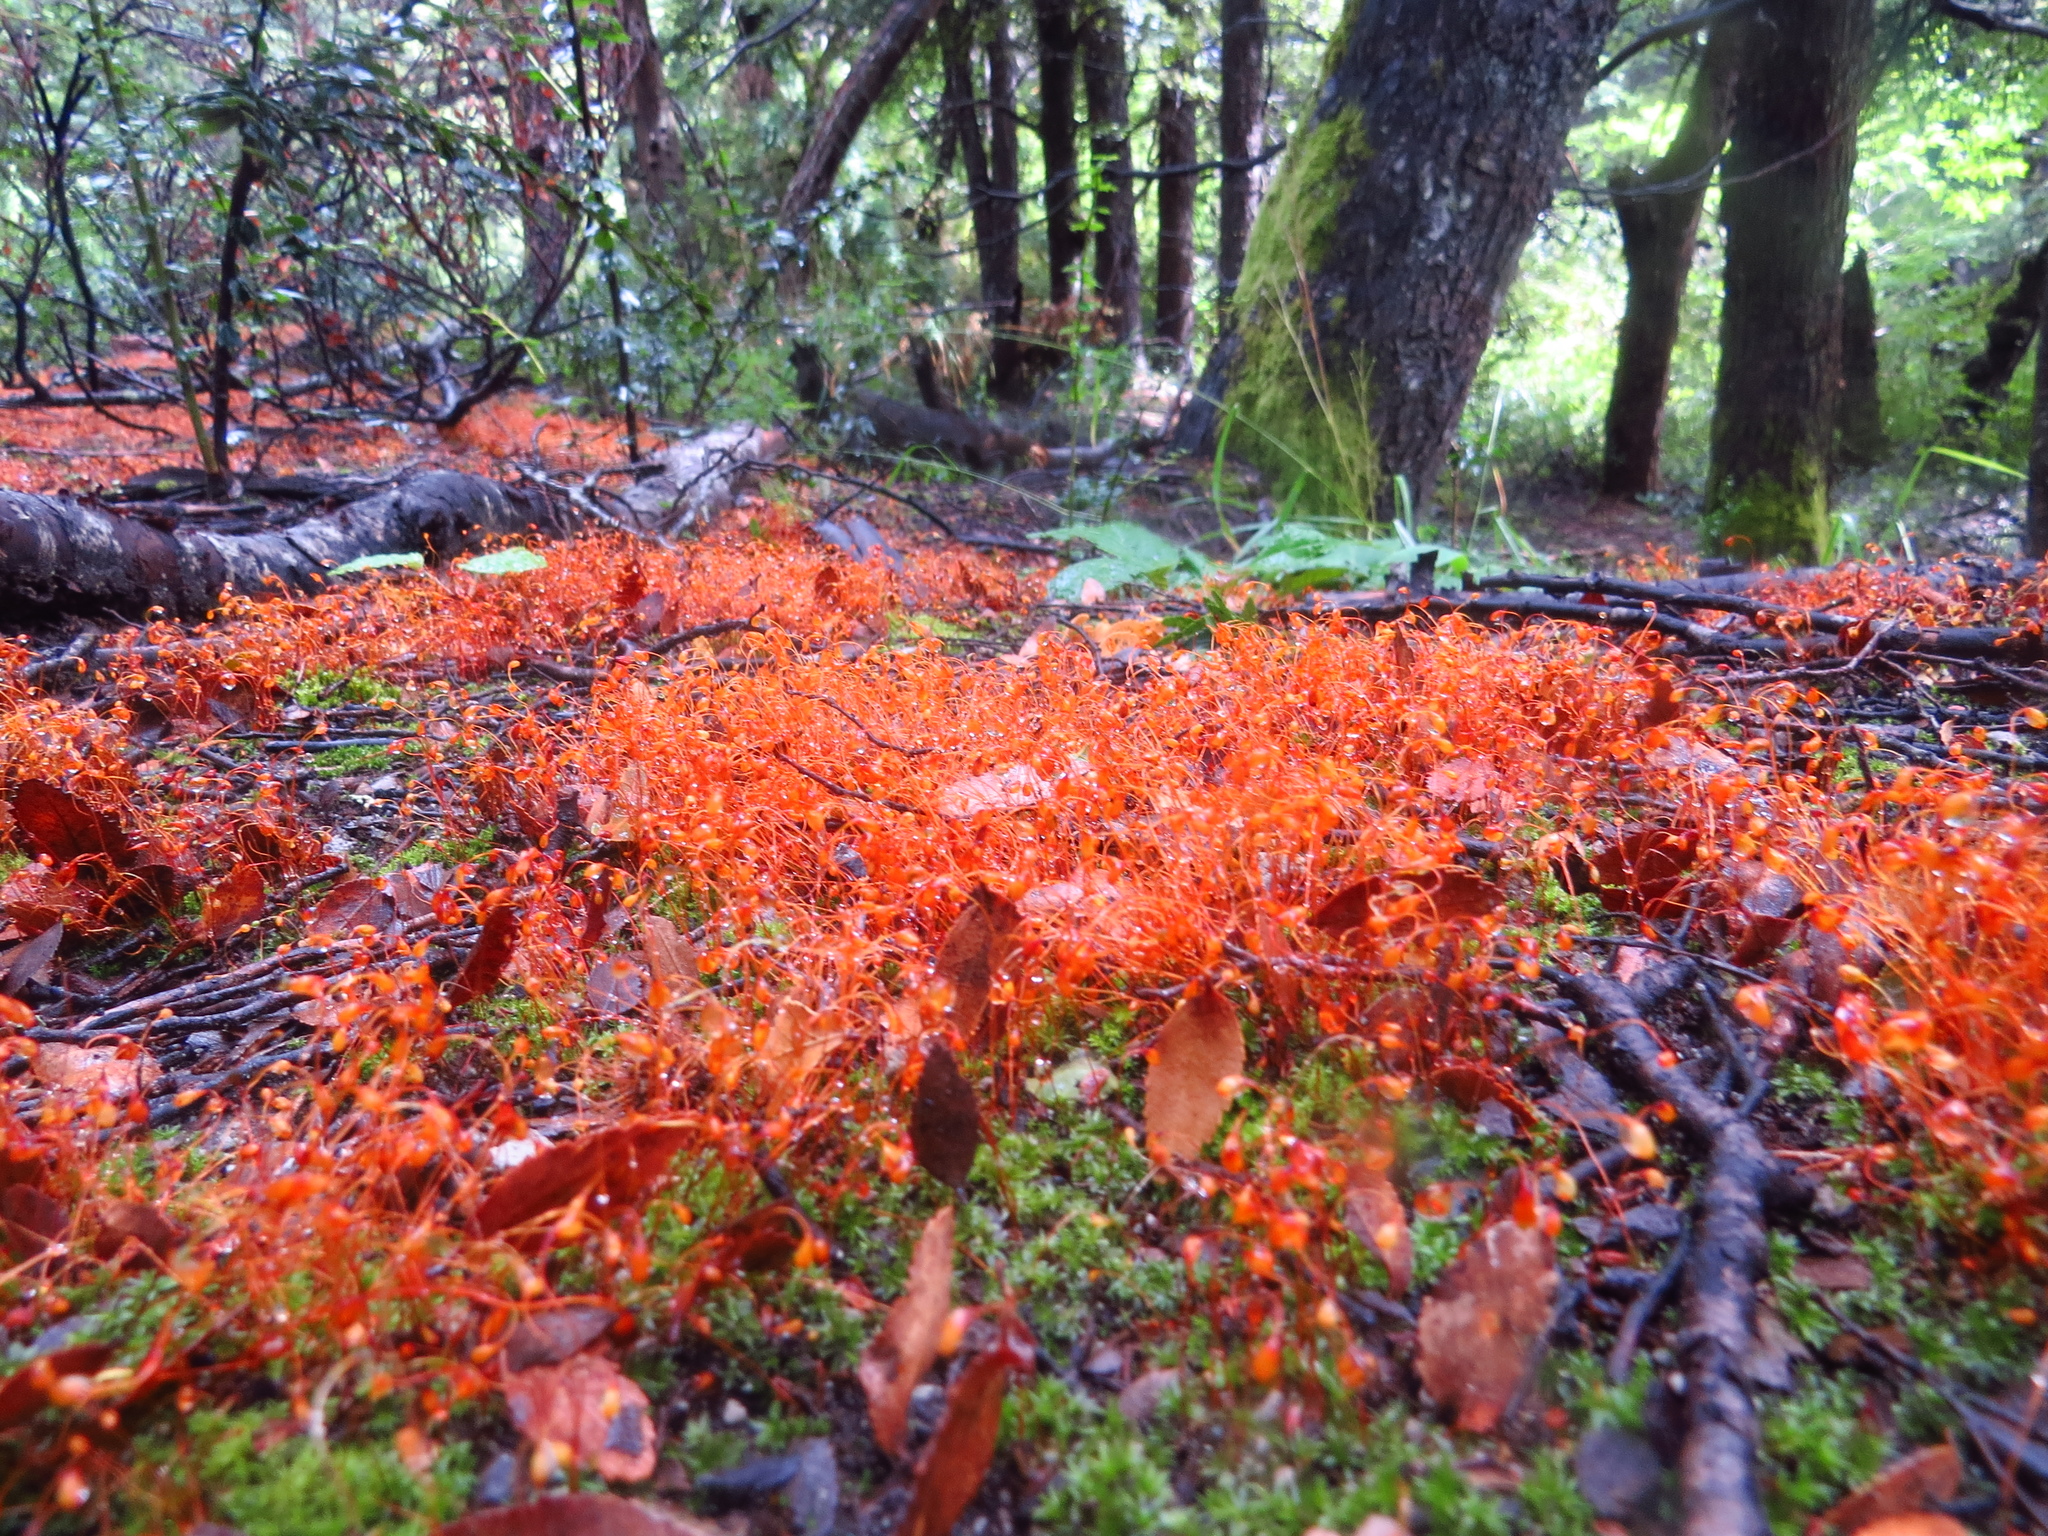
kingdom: Plantae
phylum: Bryophyta
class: Bryopsida
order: Funariales
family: Funariaceae
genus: Funaria
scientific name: Funaria hygrometrica
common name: Common cord moss
